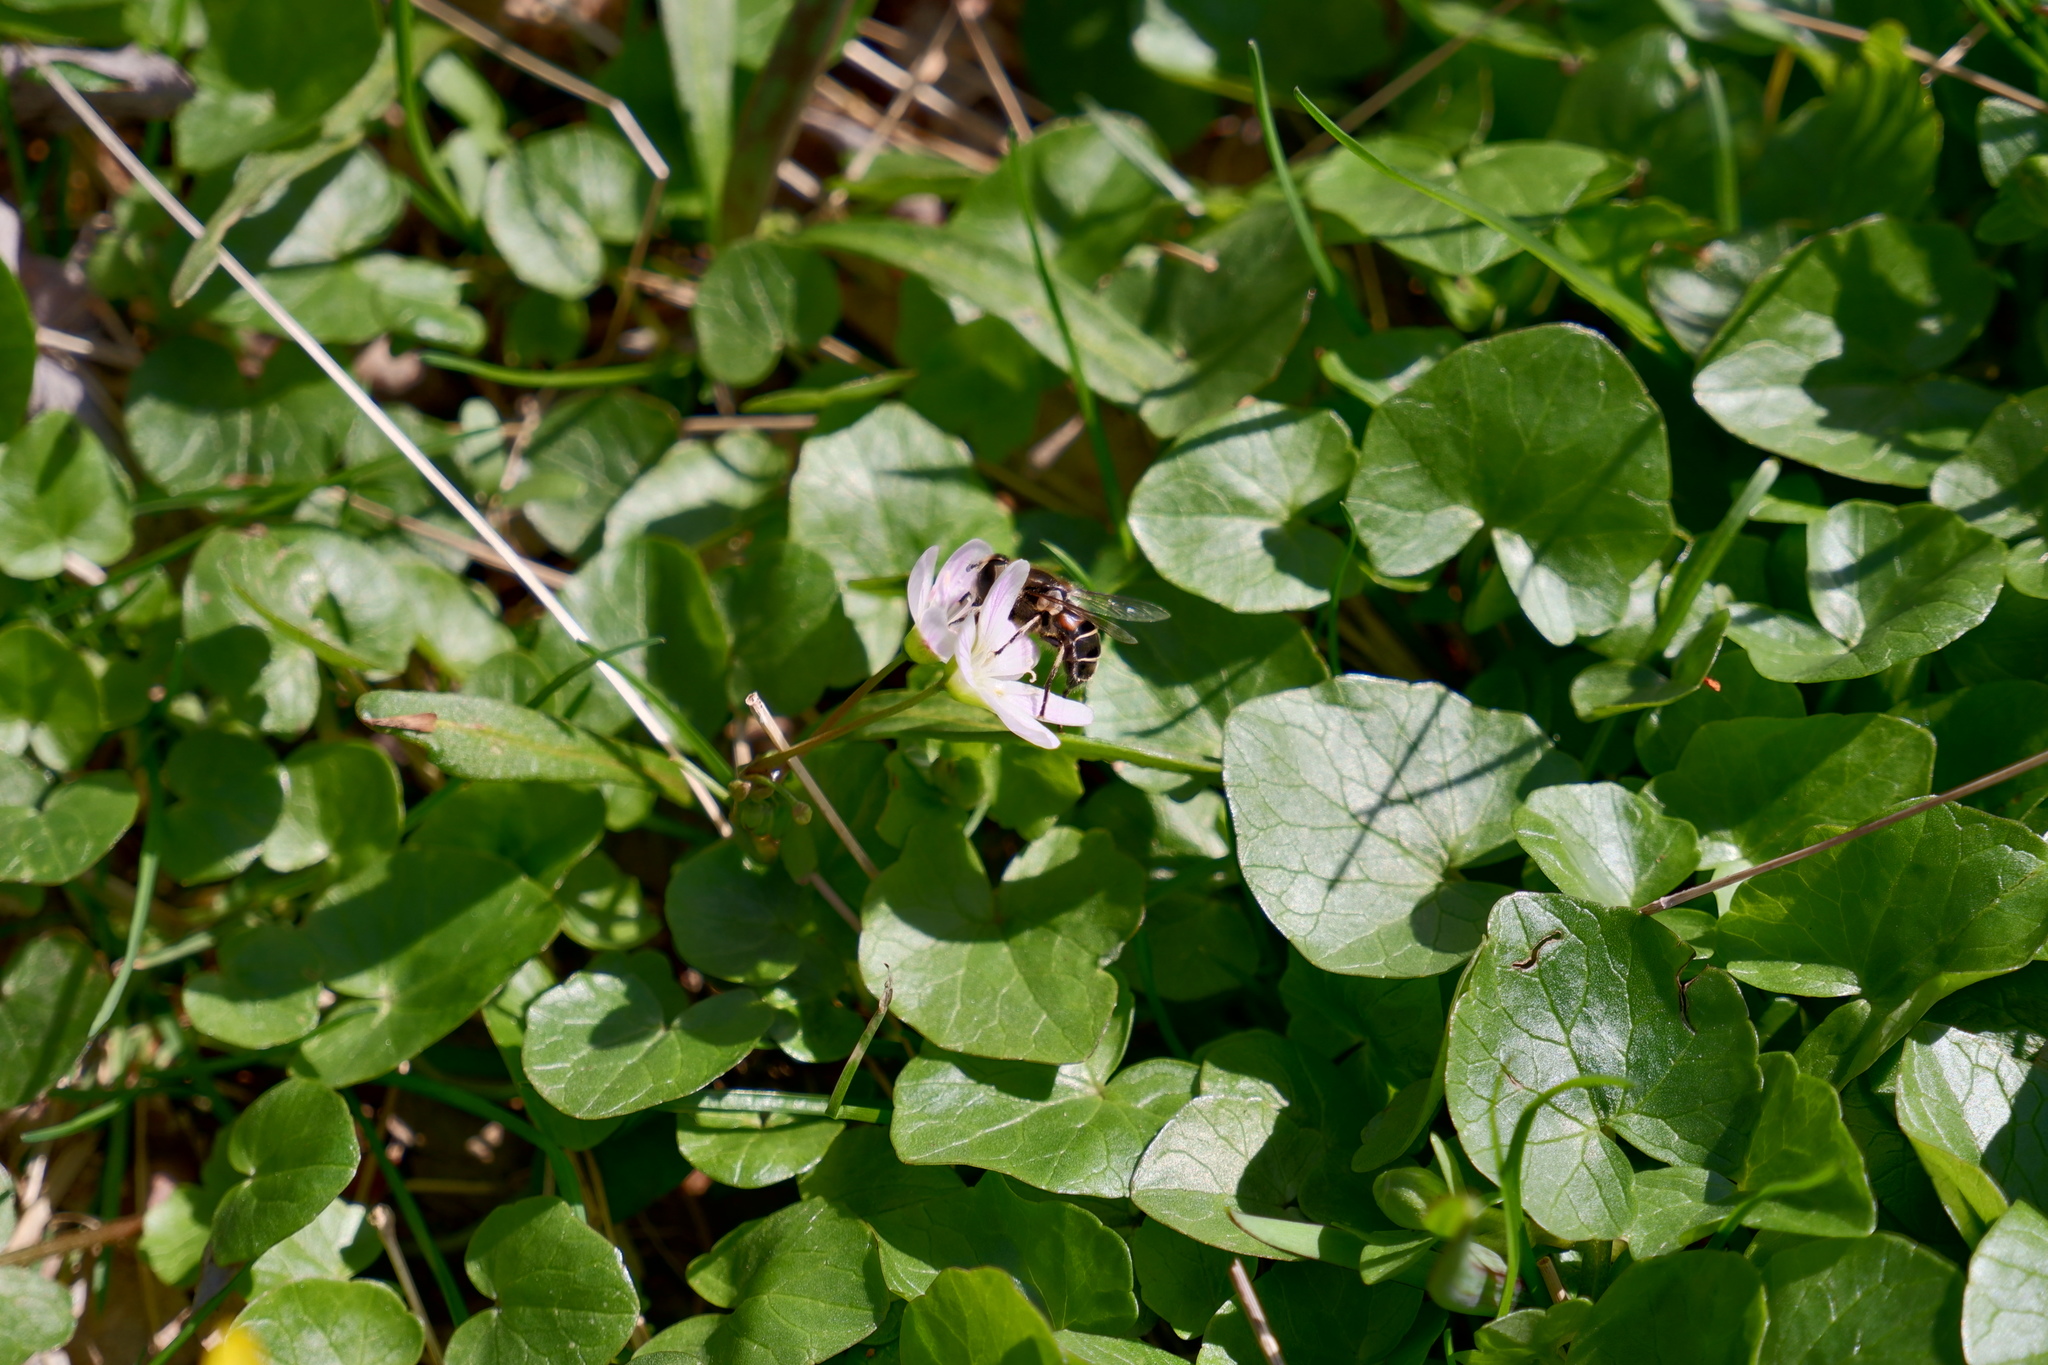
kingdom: Animalia
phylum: Arthropoda
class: Insecta
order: Diptera
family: Syrphidae
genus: Eristalis
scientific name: Eristalis dimidiata
